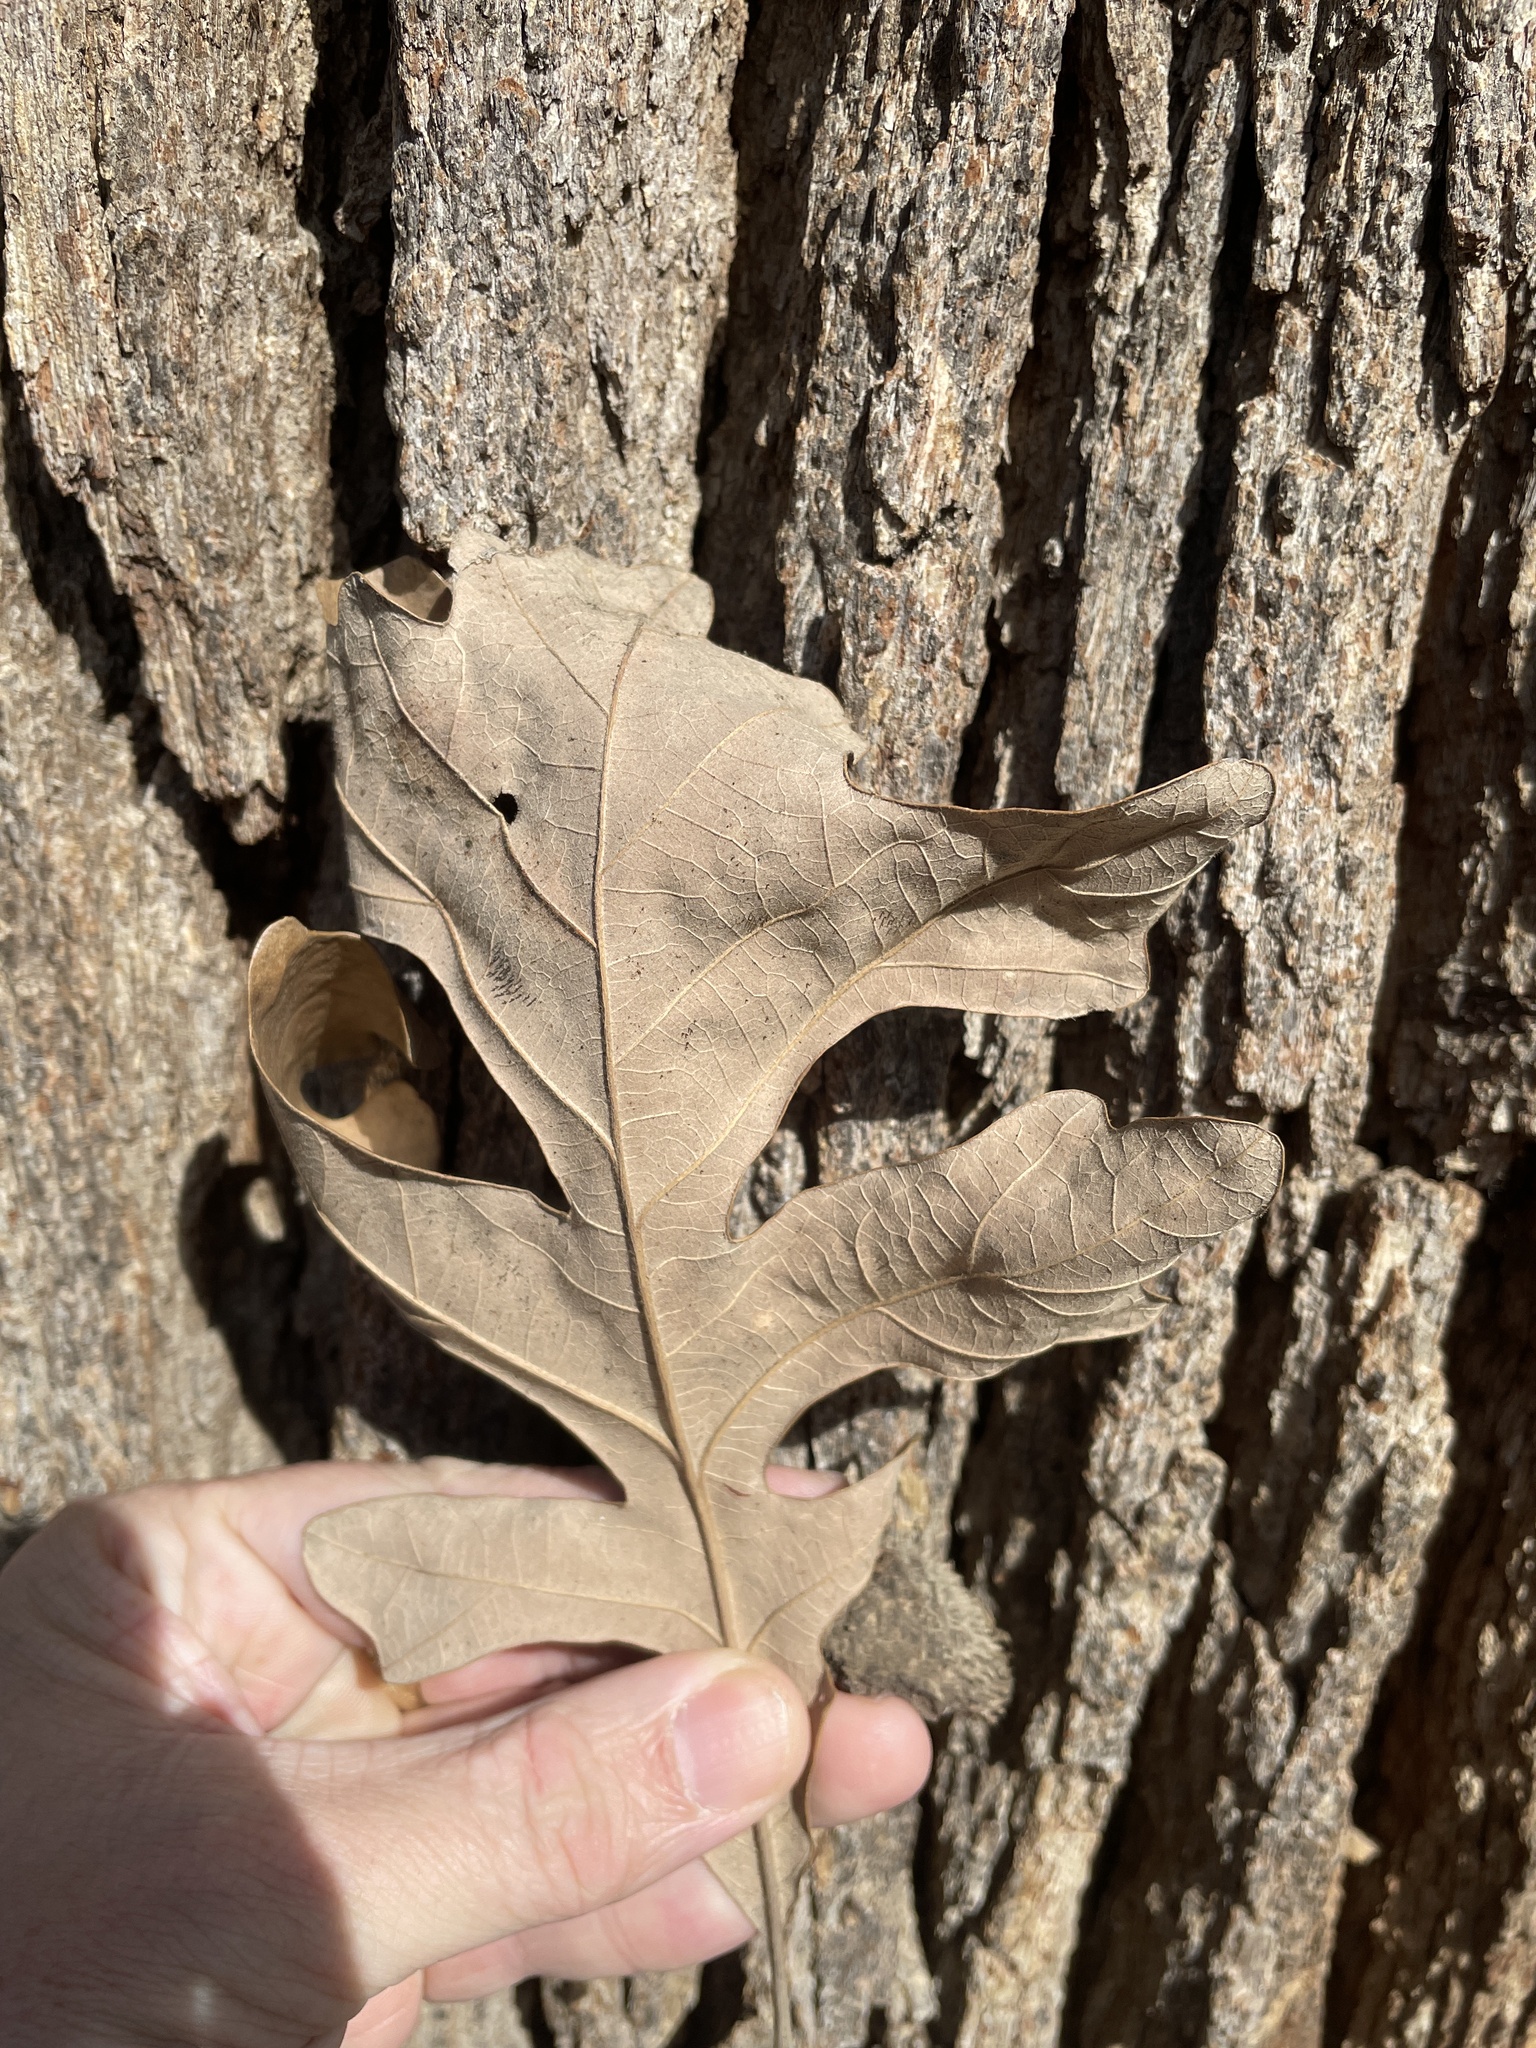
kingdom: Plantae
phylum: Tracheophyta
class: Magnoliopsida
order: Fagales
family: Fagaceae
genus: Quercus
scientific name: Quercus macrocarpa
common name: Bur oak
